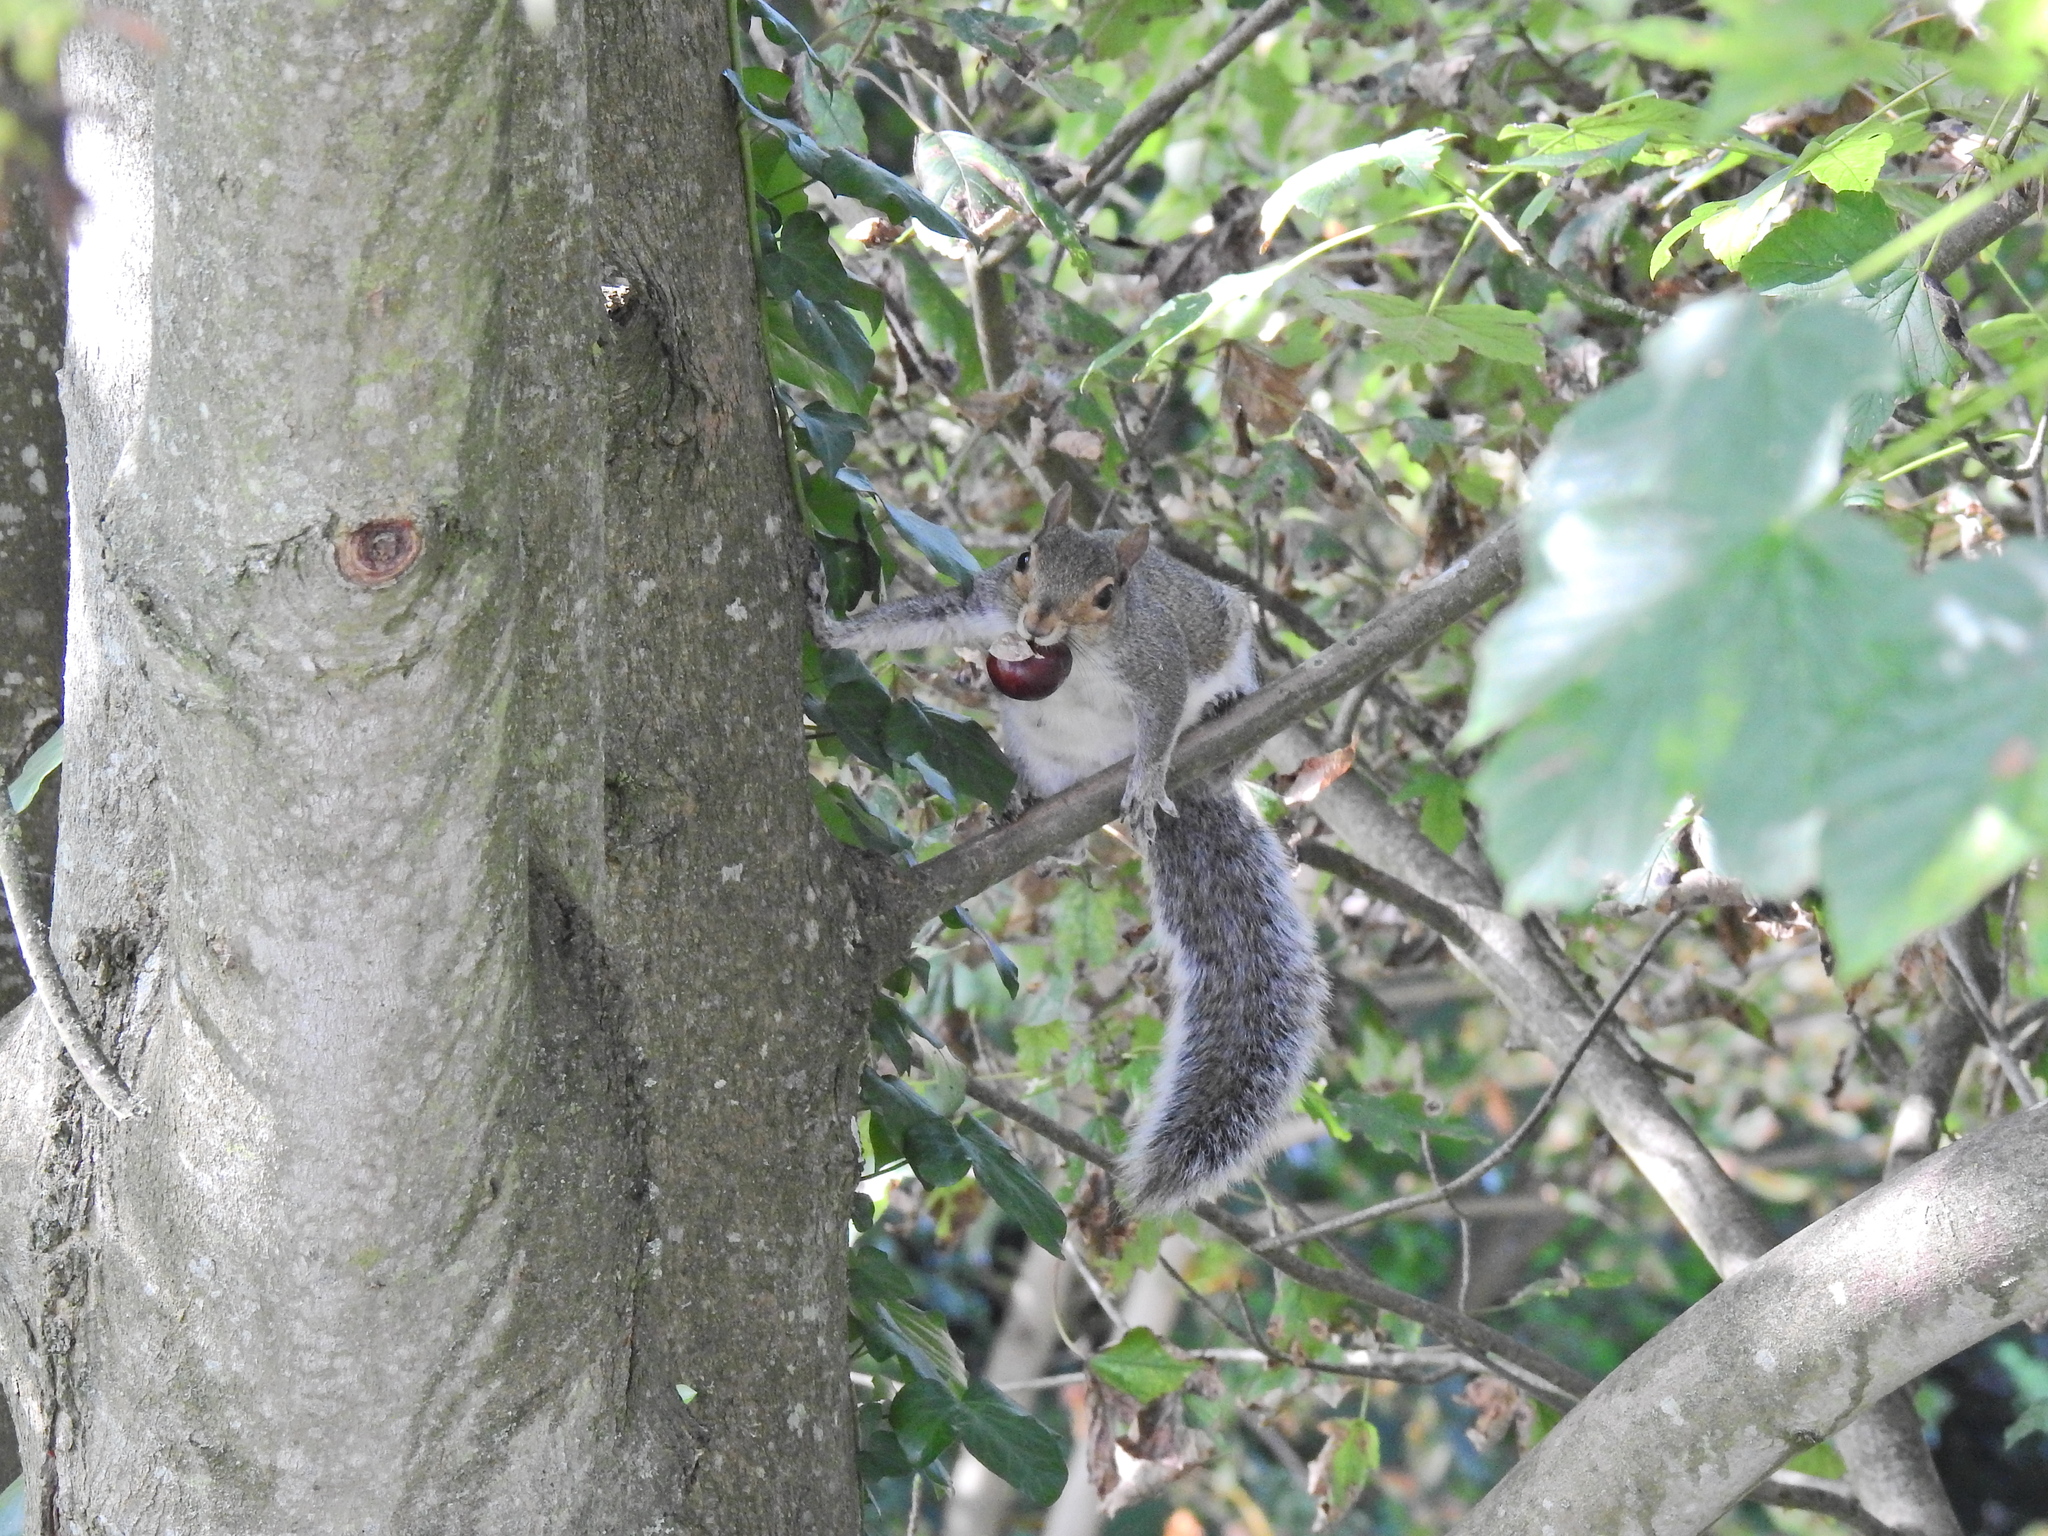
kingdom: Animalia
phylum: Chordata
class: Mammalia
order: Rodentia
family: Sciuridae
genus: Sciurus
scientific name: Sciurus carolinensis
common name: Eastern gray squirrel
